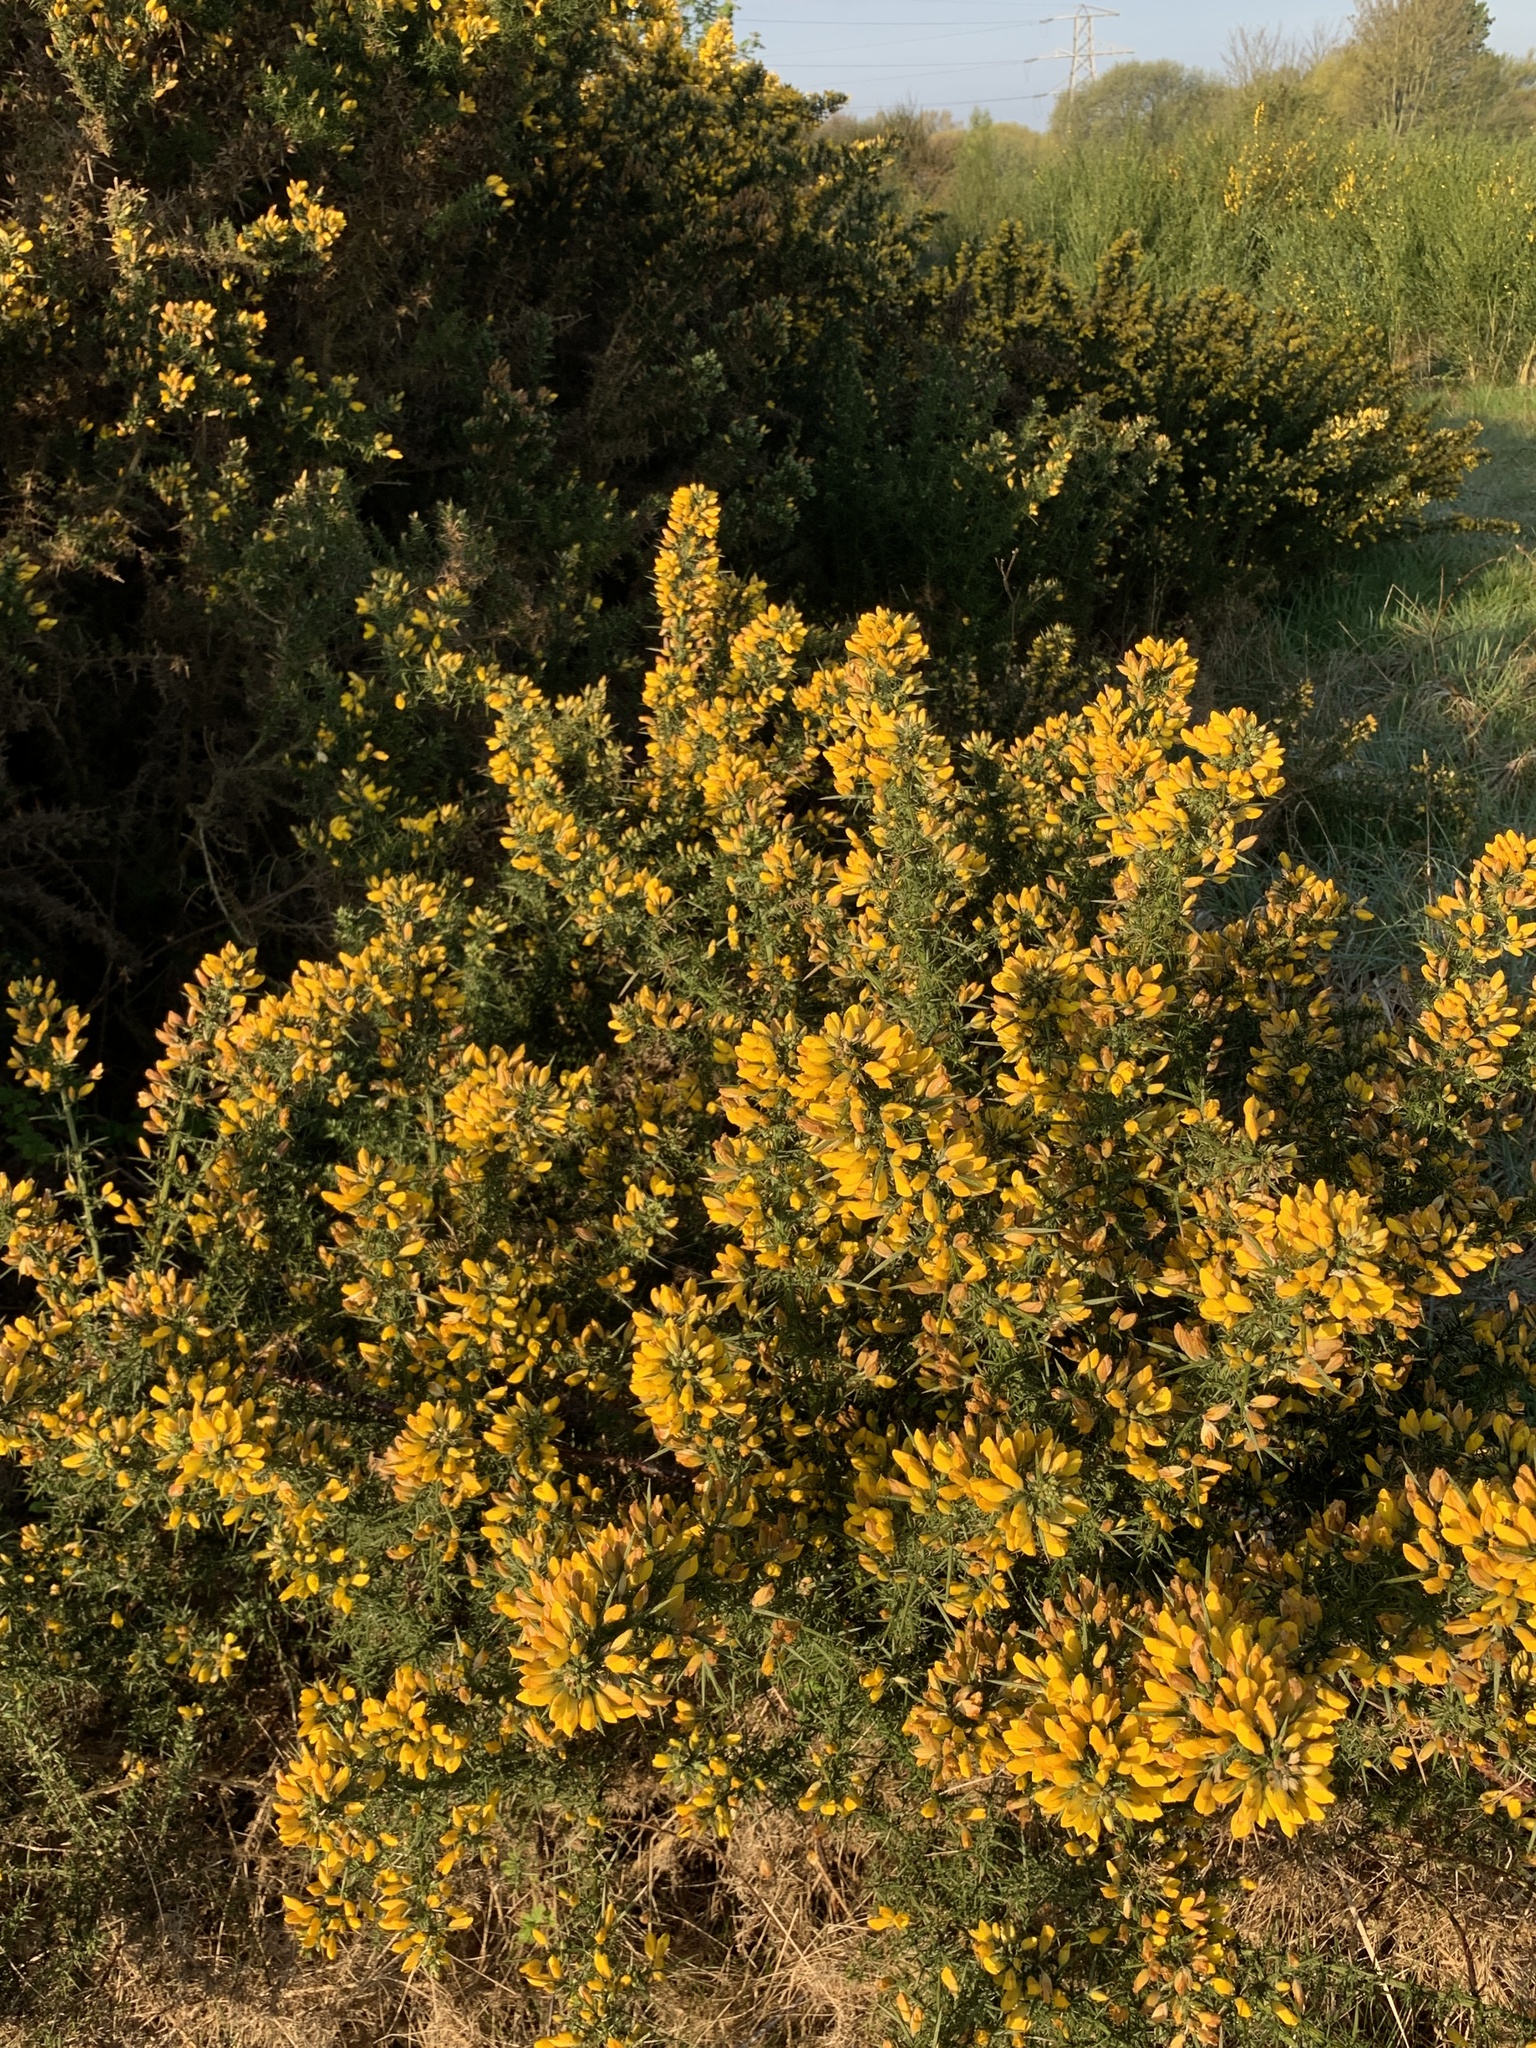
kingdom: Plantae
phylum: Tracheophyta
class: Magnoliopsida
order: Fabales
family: Fabaceae
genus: Ulex
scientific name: Ulex europaeus
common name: Common gorse
